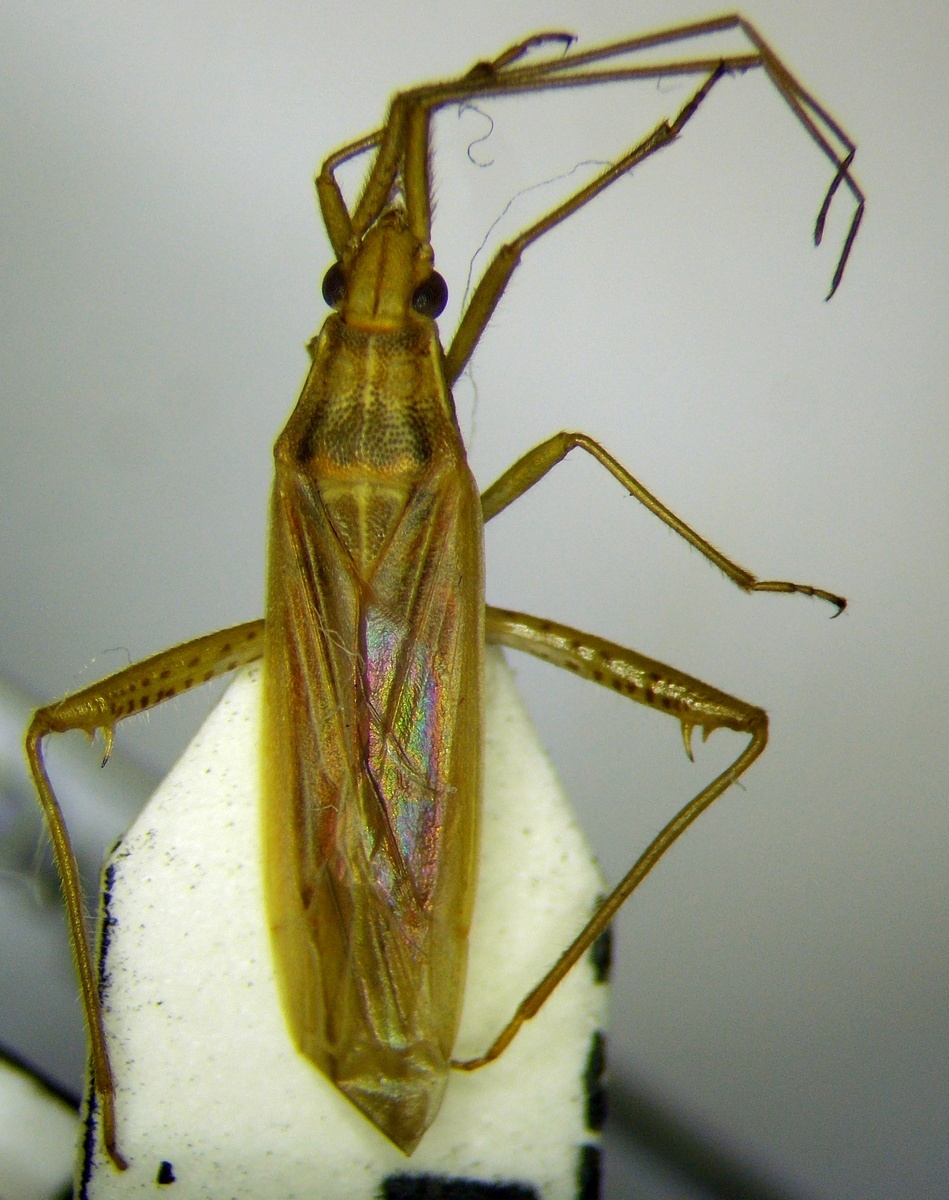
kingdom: Animalia
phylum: Arthropoda
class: Insecta
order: Hemiptera
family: Miridae
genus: Stenodema
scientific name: Stenodema calcarata
